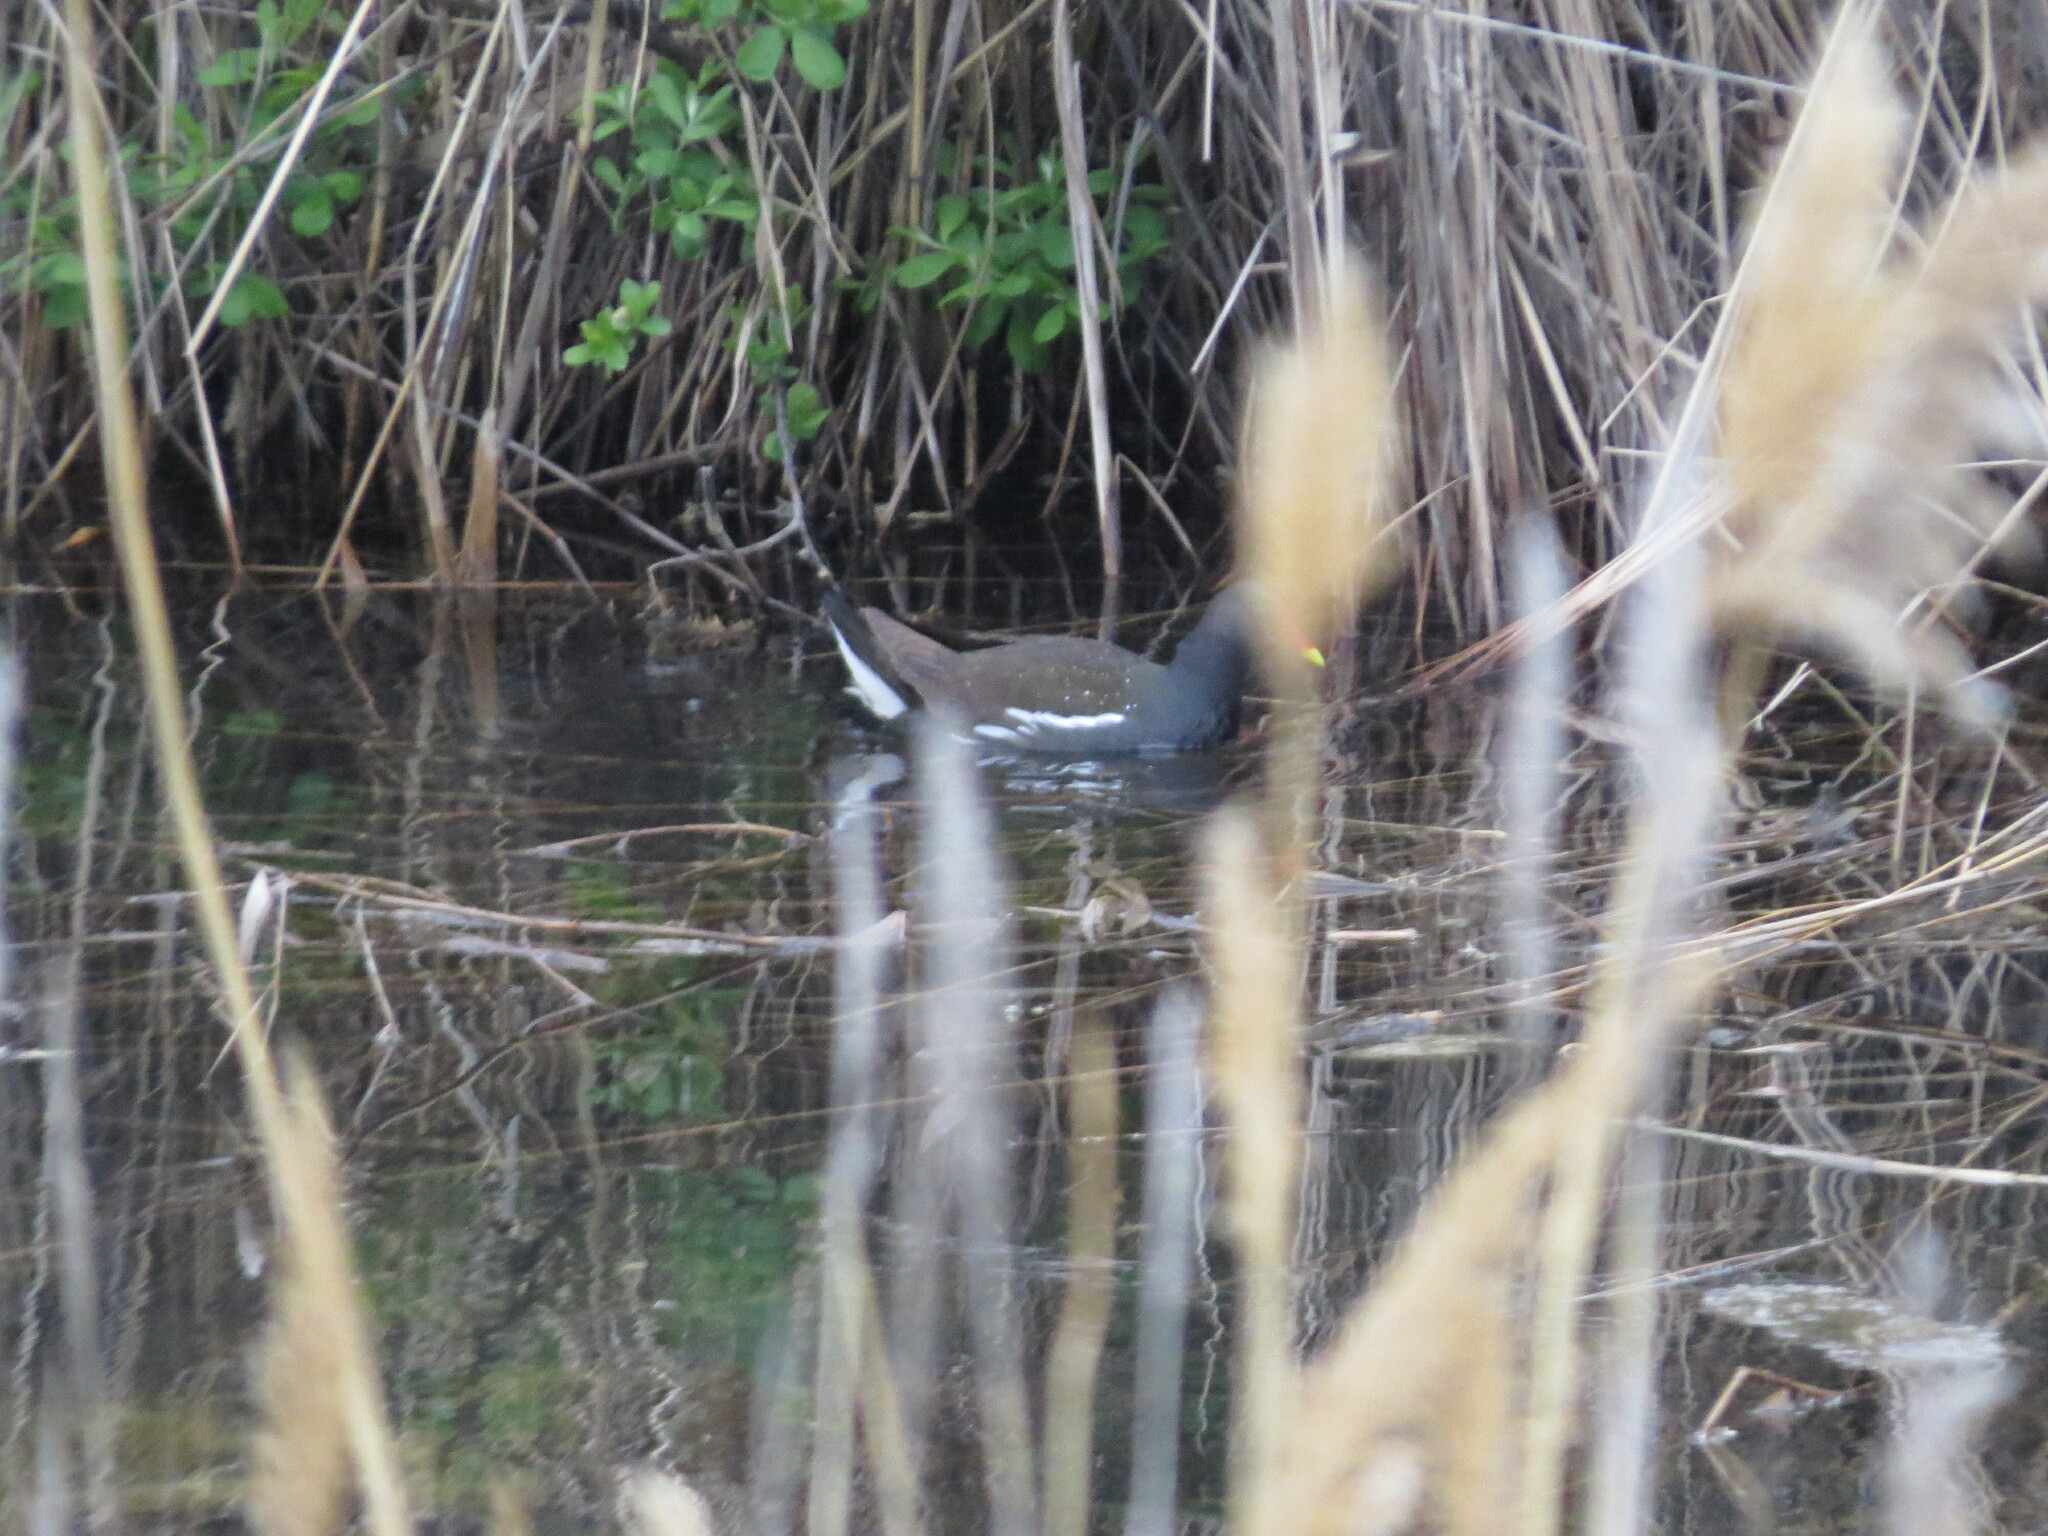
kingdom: Animalia
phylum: Chordata
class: Aves
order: Gruiformes
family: Rallidae
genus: Gallinula
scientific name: Gallinula chloropus
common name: Common moorhen
